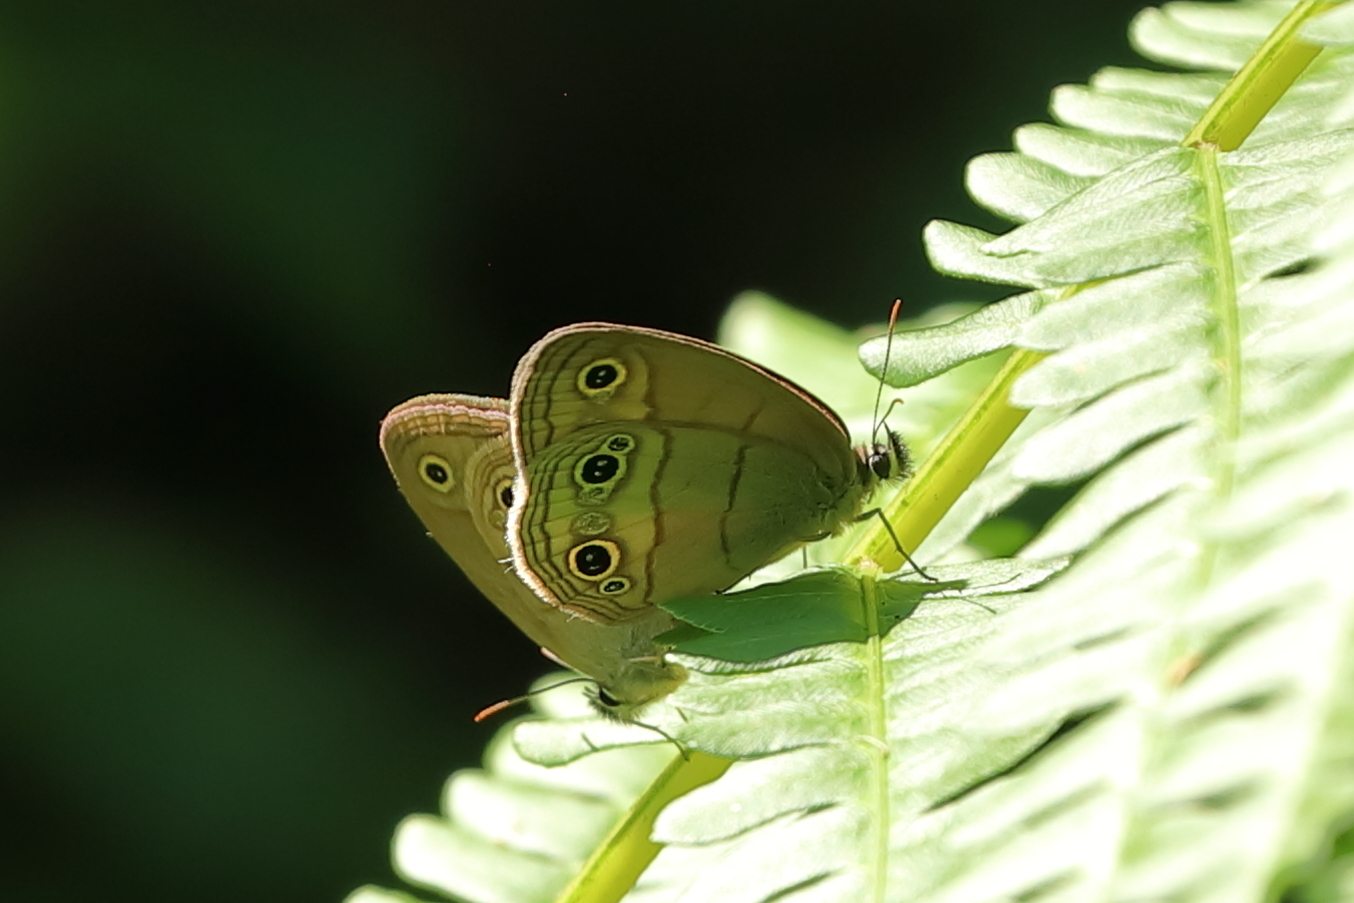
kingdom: Animalia
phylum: Arthropoda
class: Insecta
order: Lepidoptera
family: Nymphalidae
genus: Euptychia
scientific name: Euptychia cymela
